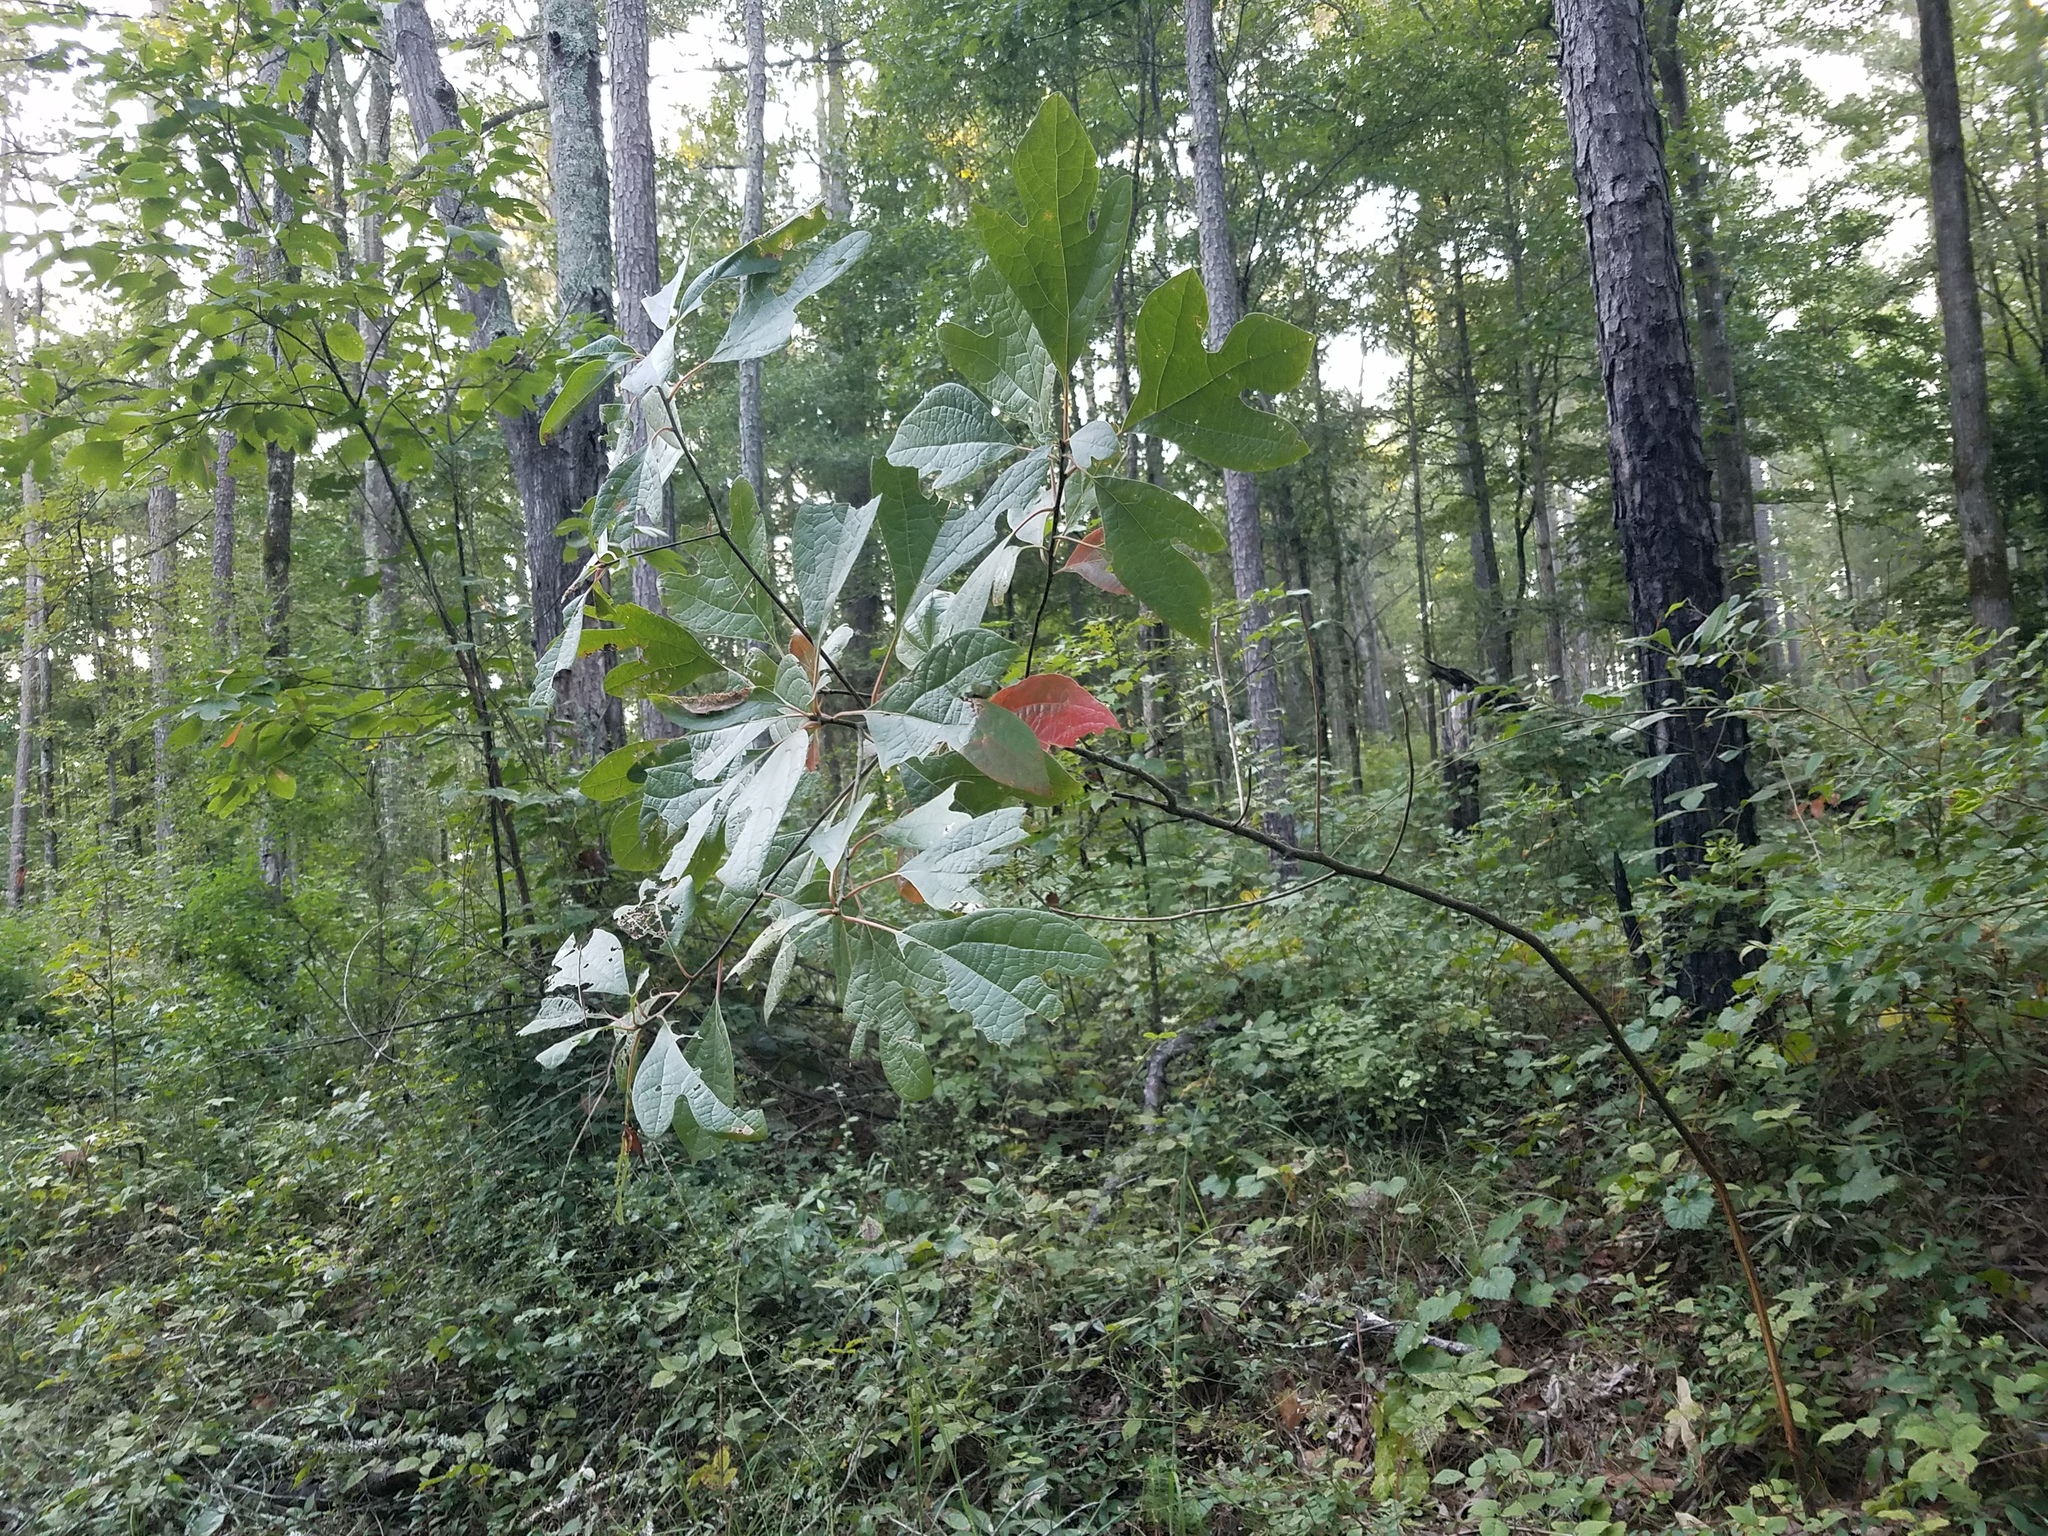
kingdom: Plantae
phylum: Tracheophyta
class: Magnoliopsida
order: Laurales
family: Lauraceae
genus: Sassafras
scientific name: Sassafras albidum
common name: Sassafras
